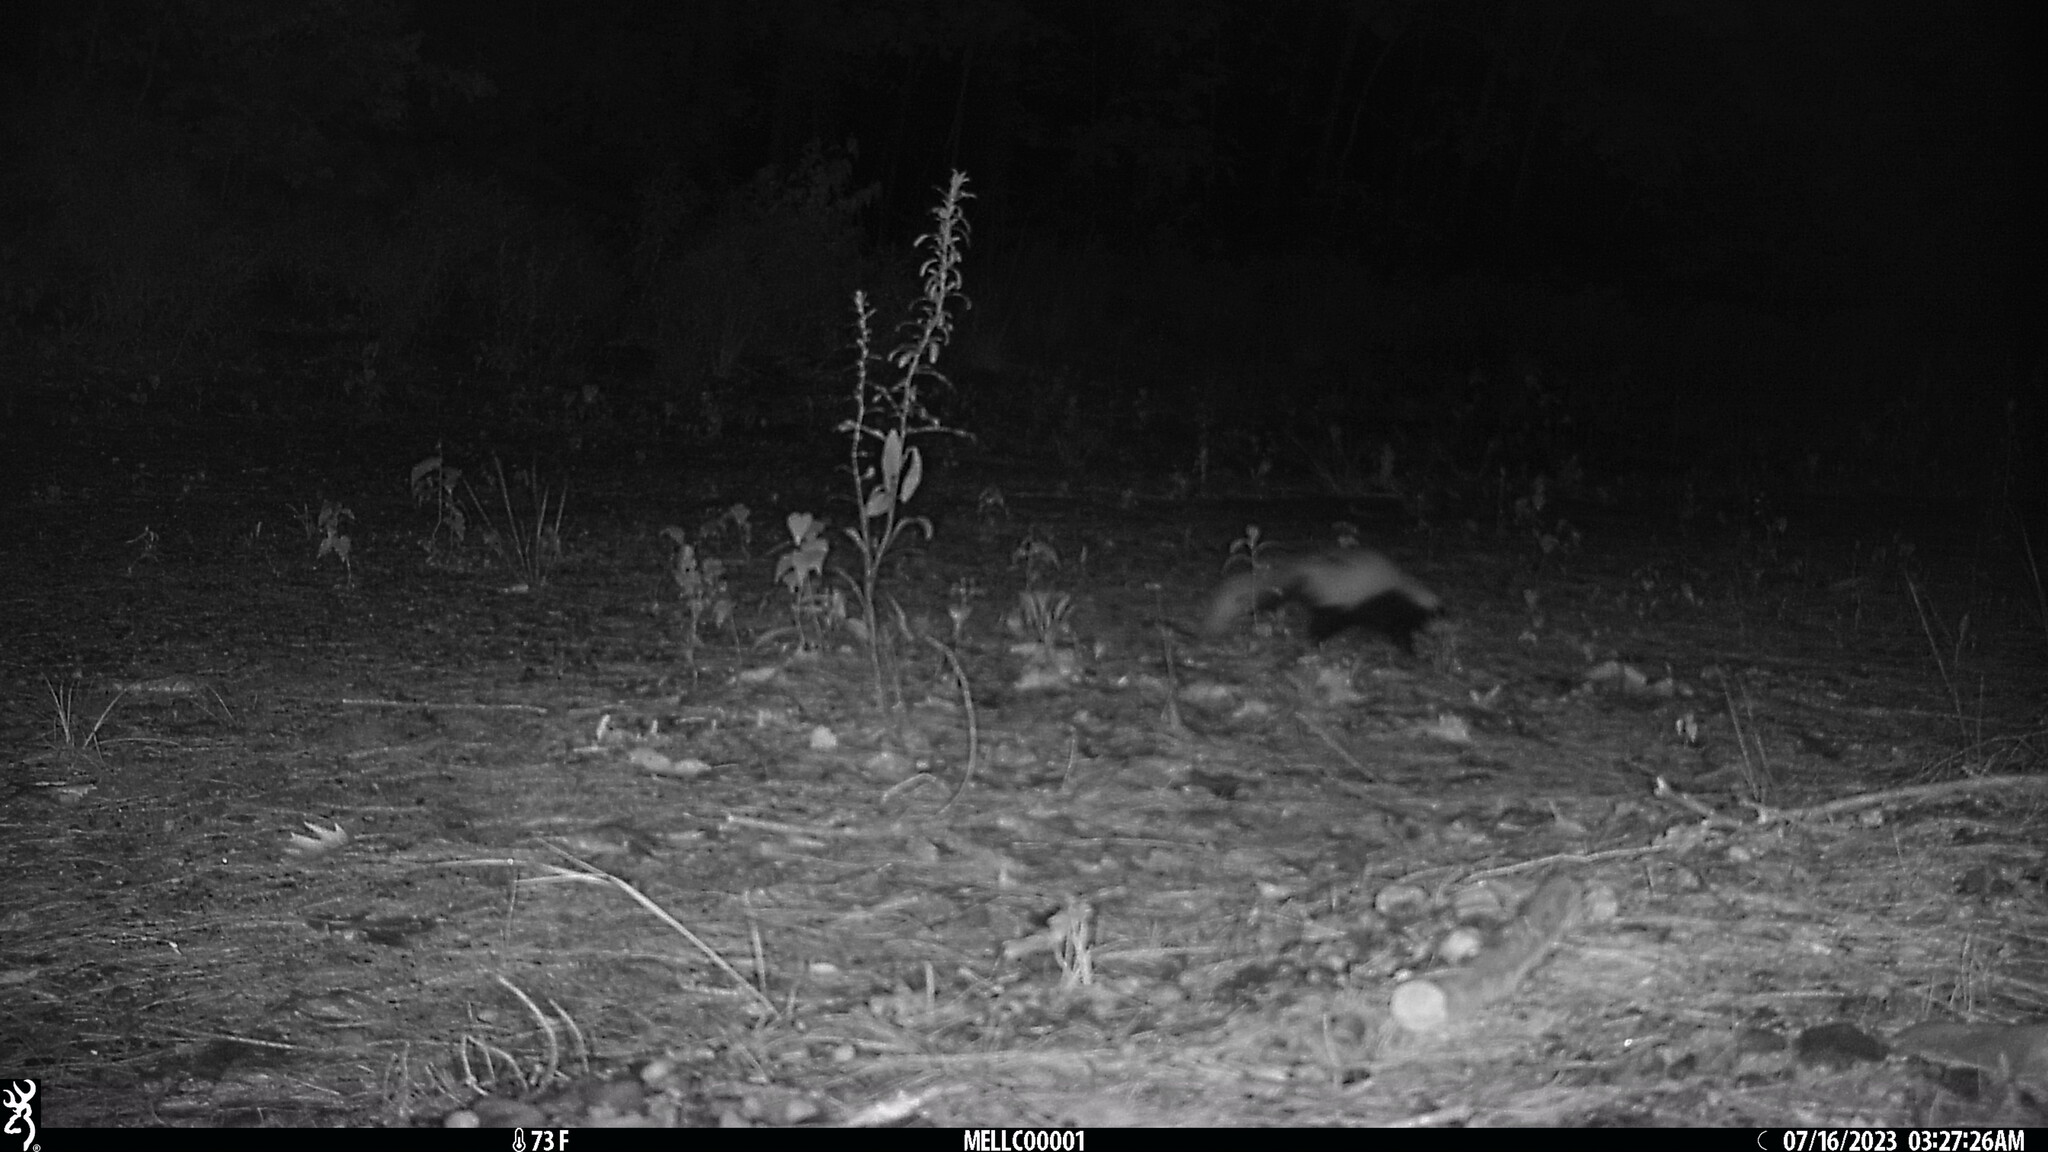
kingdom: Animalia
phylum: Chordata
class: Mammalia
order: Carnivora
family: Mephitidae
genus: Mephitis
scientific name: Mephitis mephitis
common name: Striped skunk
